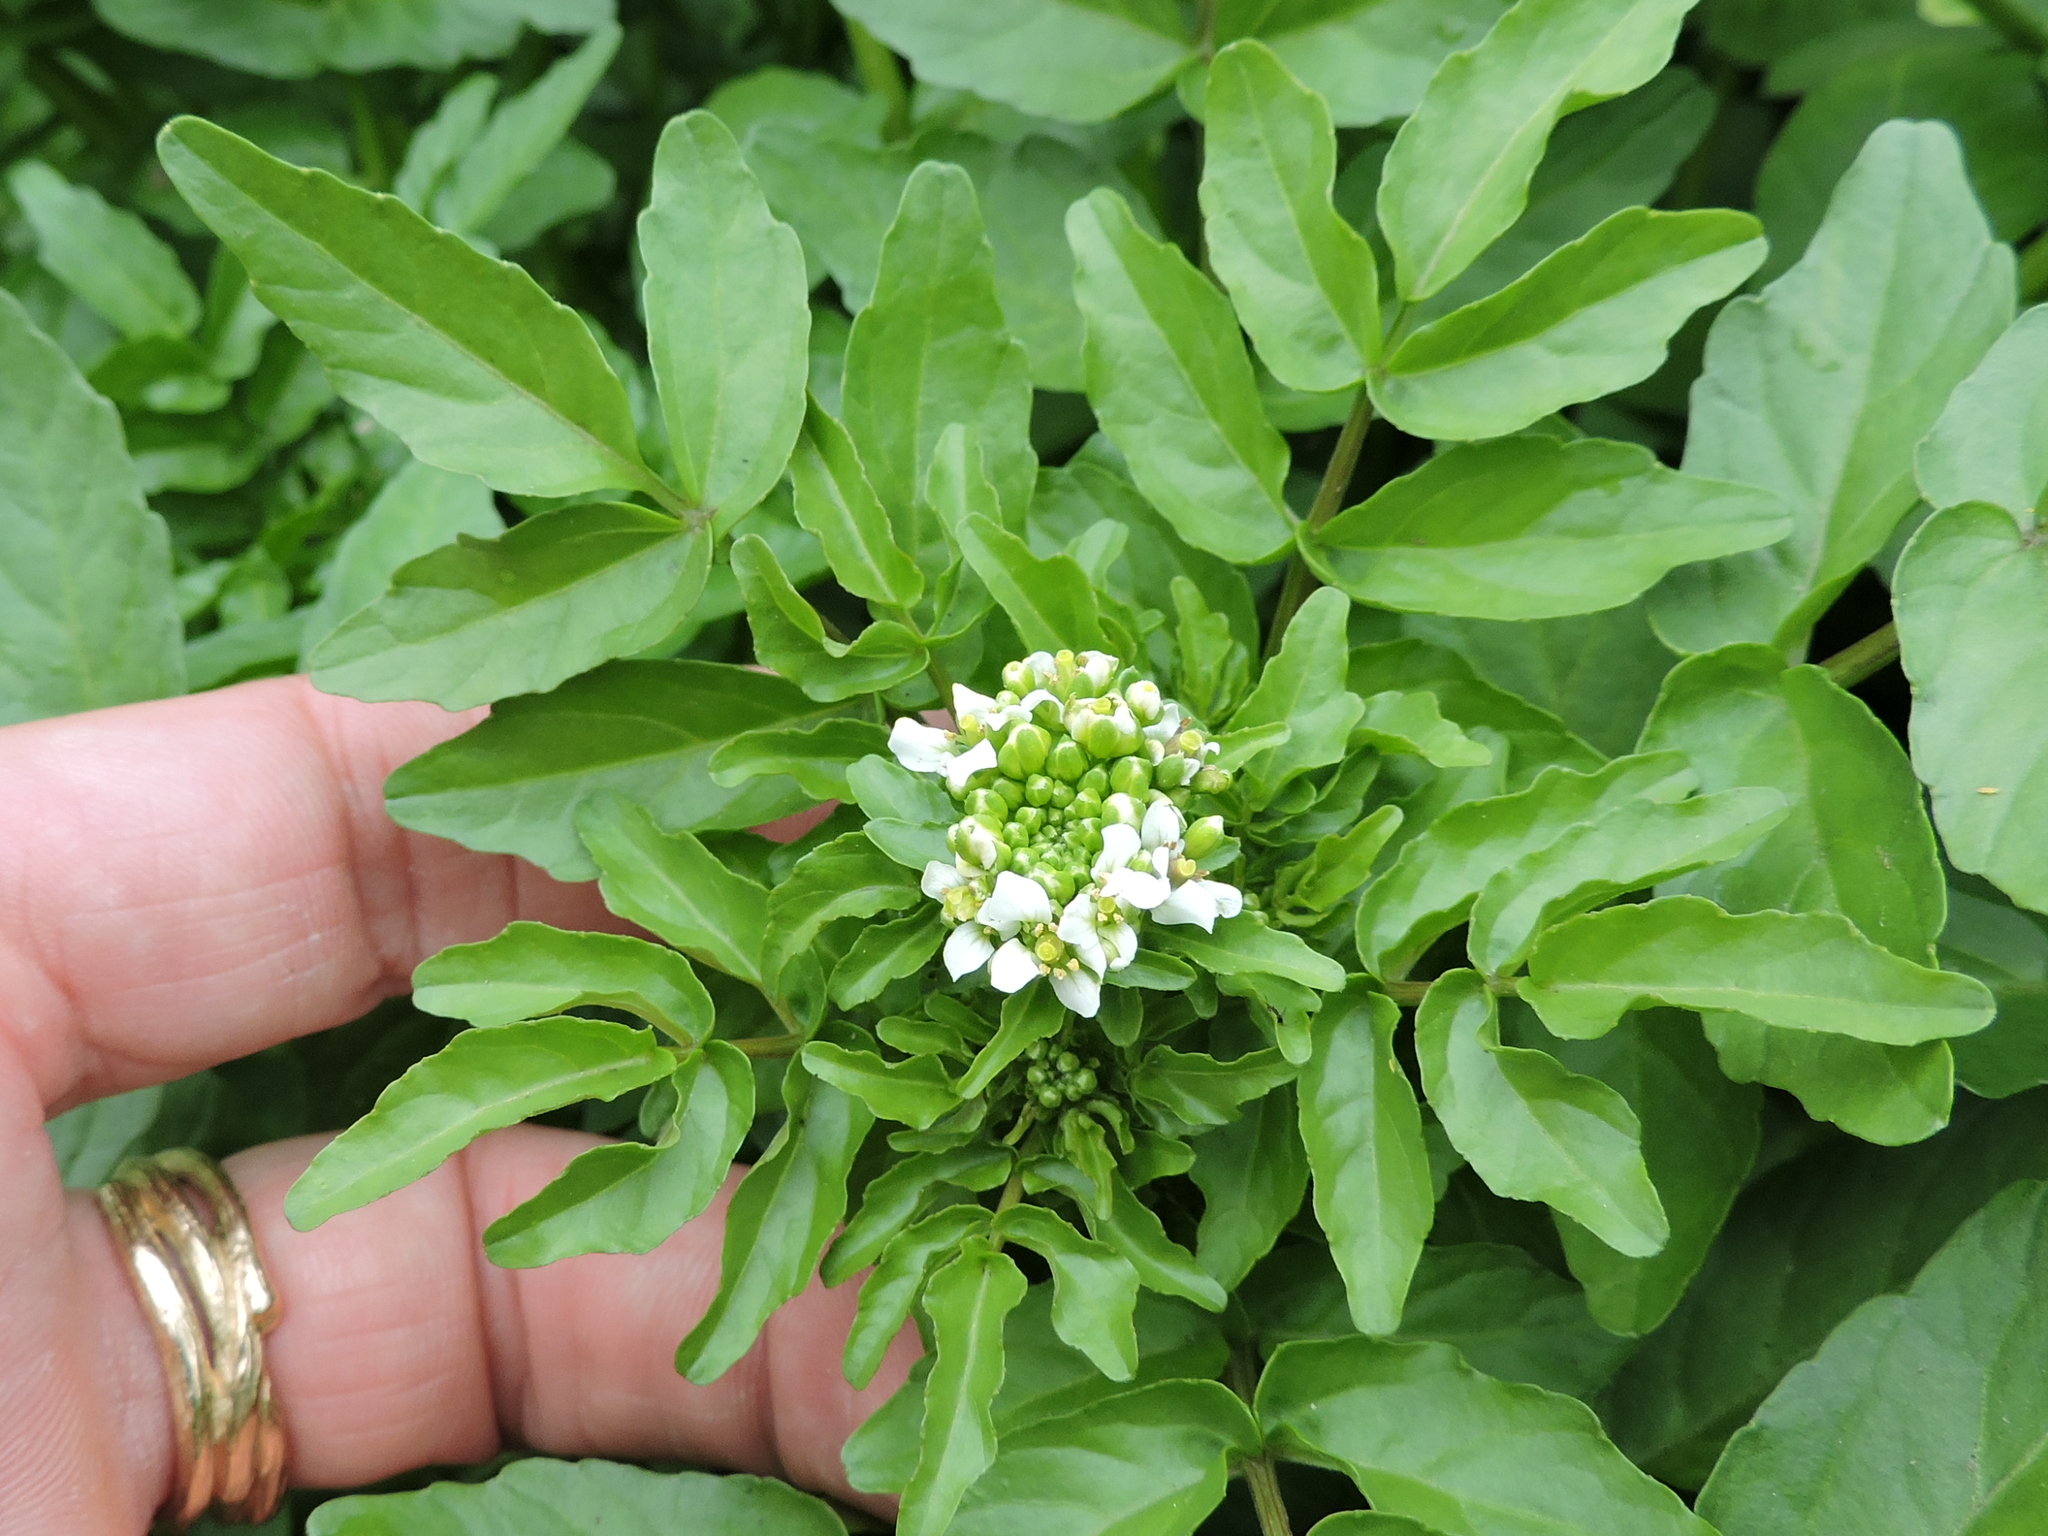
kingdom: Plantae
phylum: Tracheophyta
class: Magnoliopsida
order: Brassicales
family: Brassicaceae
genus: Nasturtium
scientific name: Nasturtium officinale
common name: Watercress
